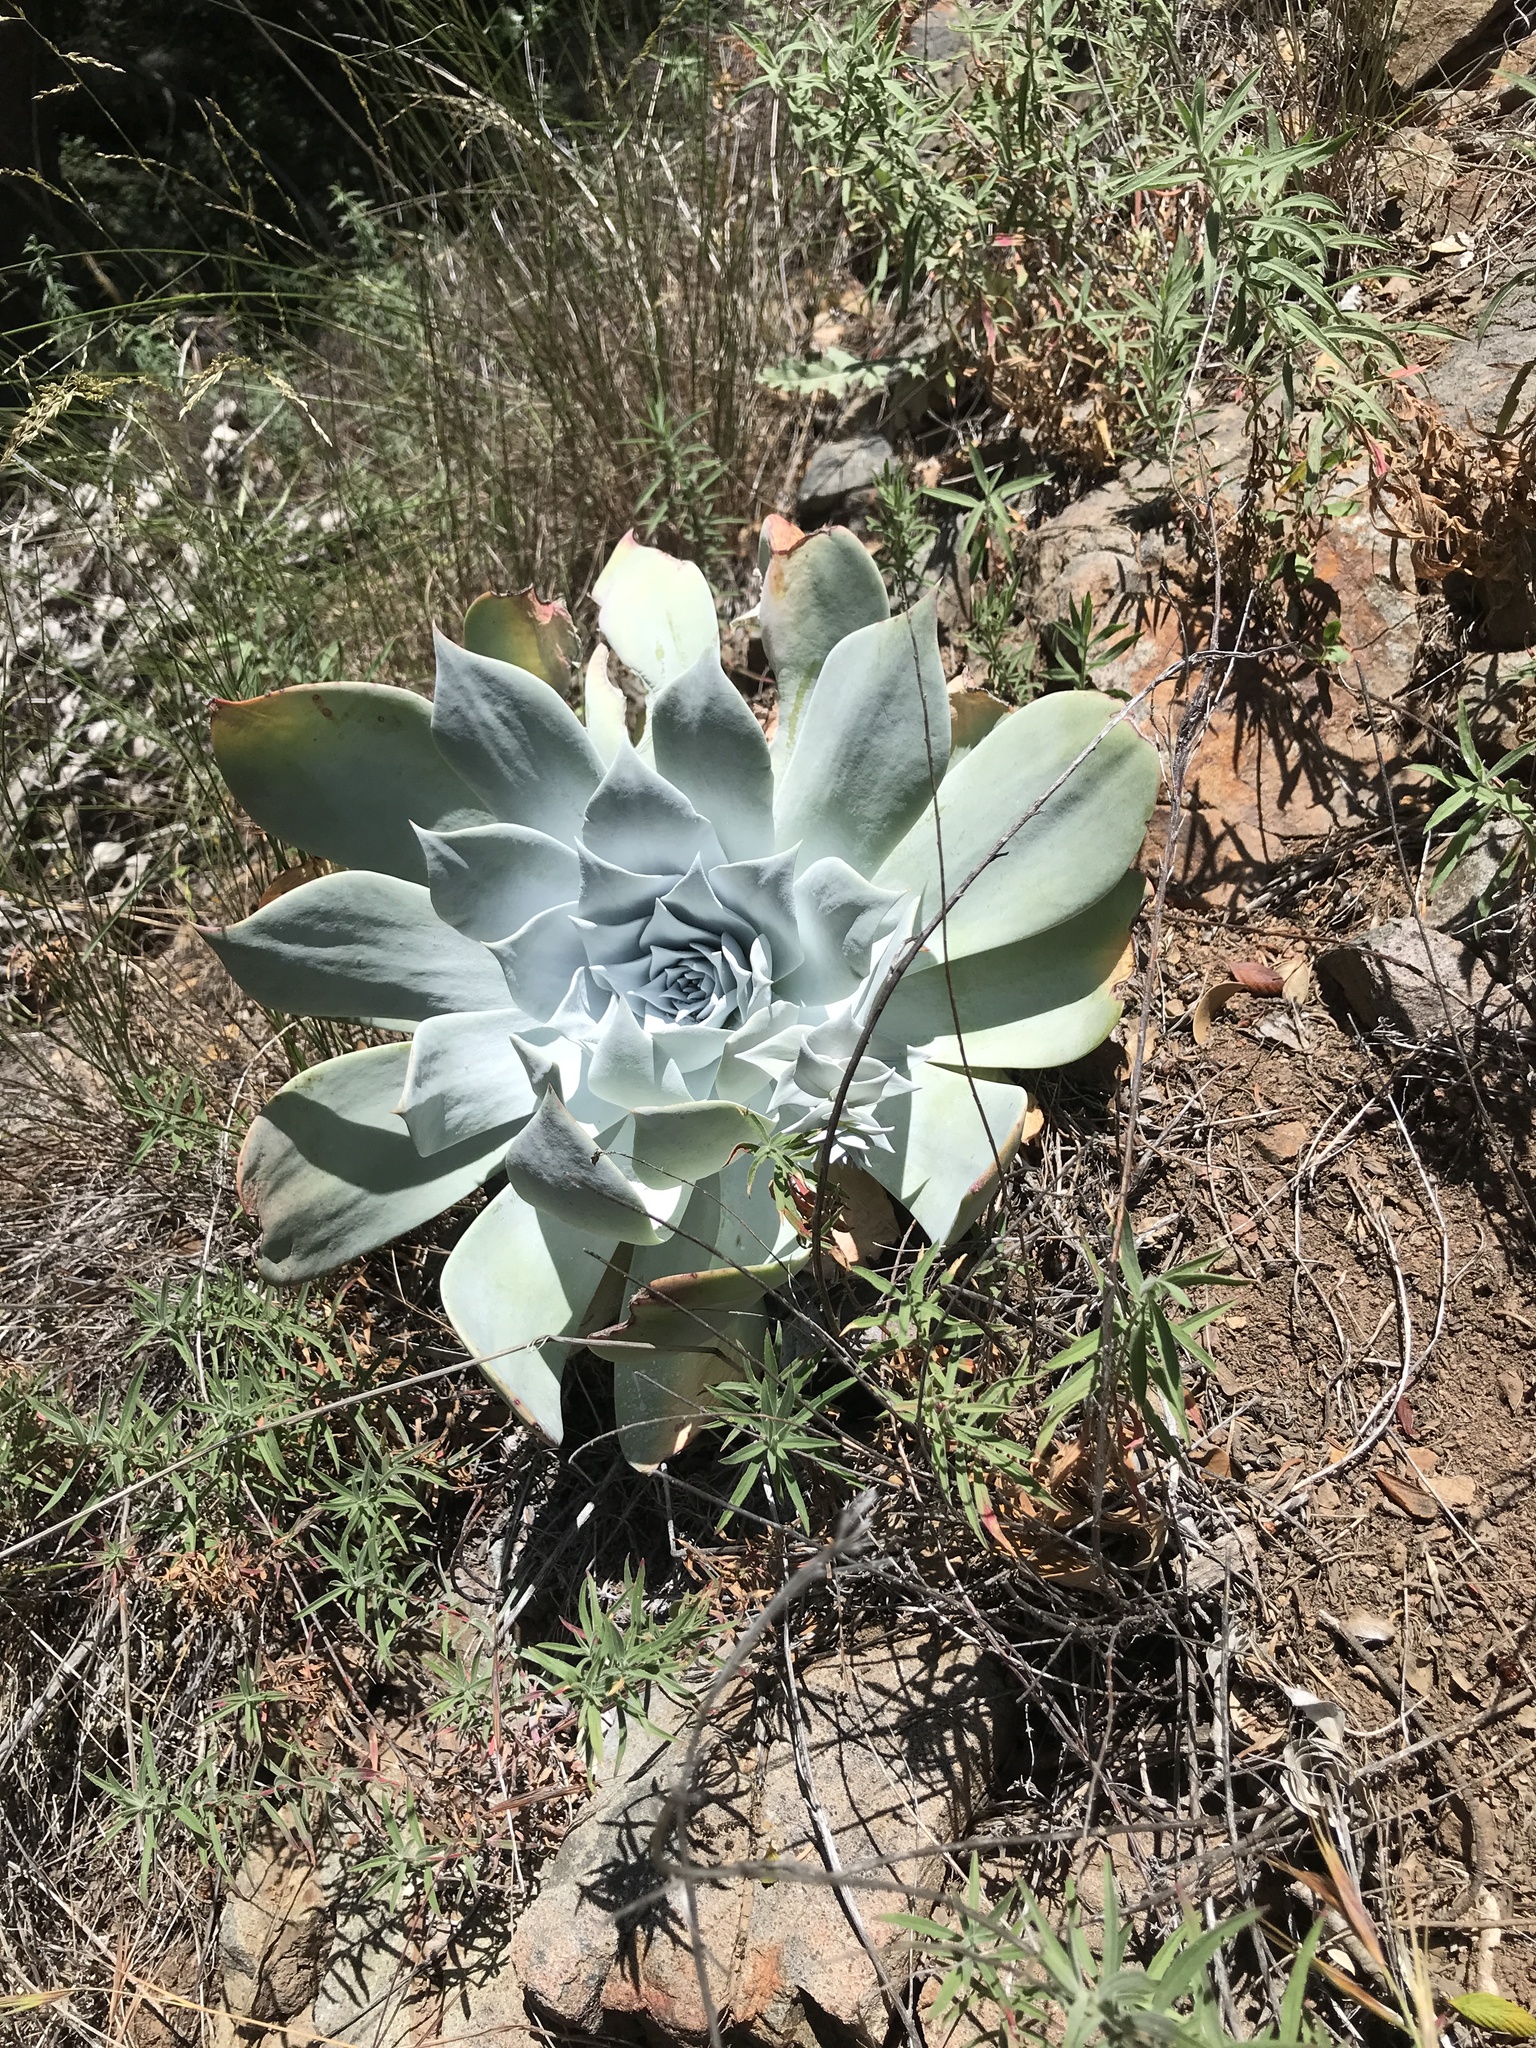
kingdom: Plantae
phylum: Tracheophyta
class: Magnoliopsida
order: Saxifragales
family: Crassulaceae
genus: Dudleya
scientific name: Dudleya pulverulenta
